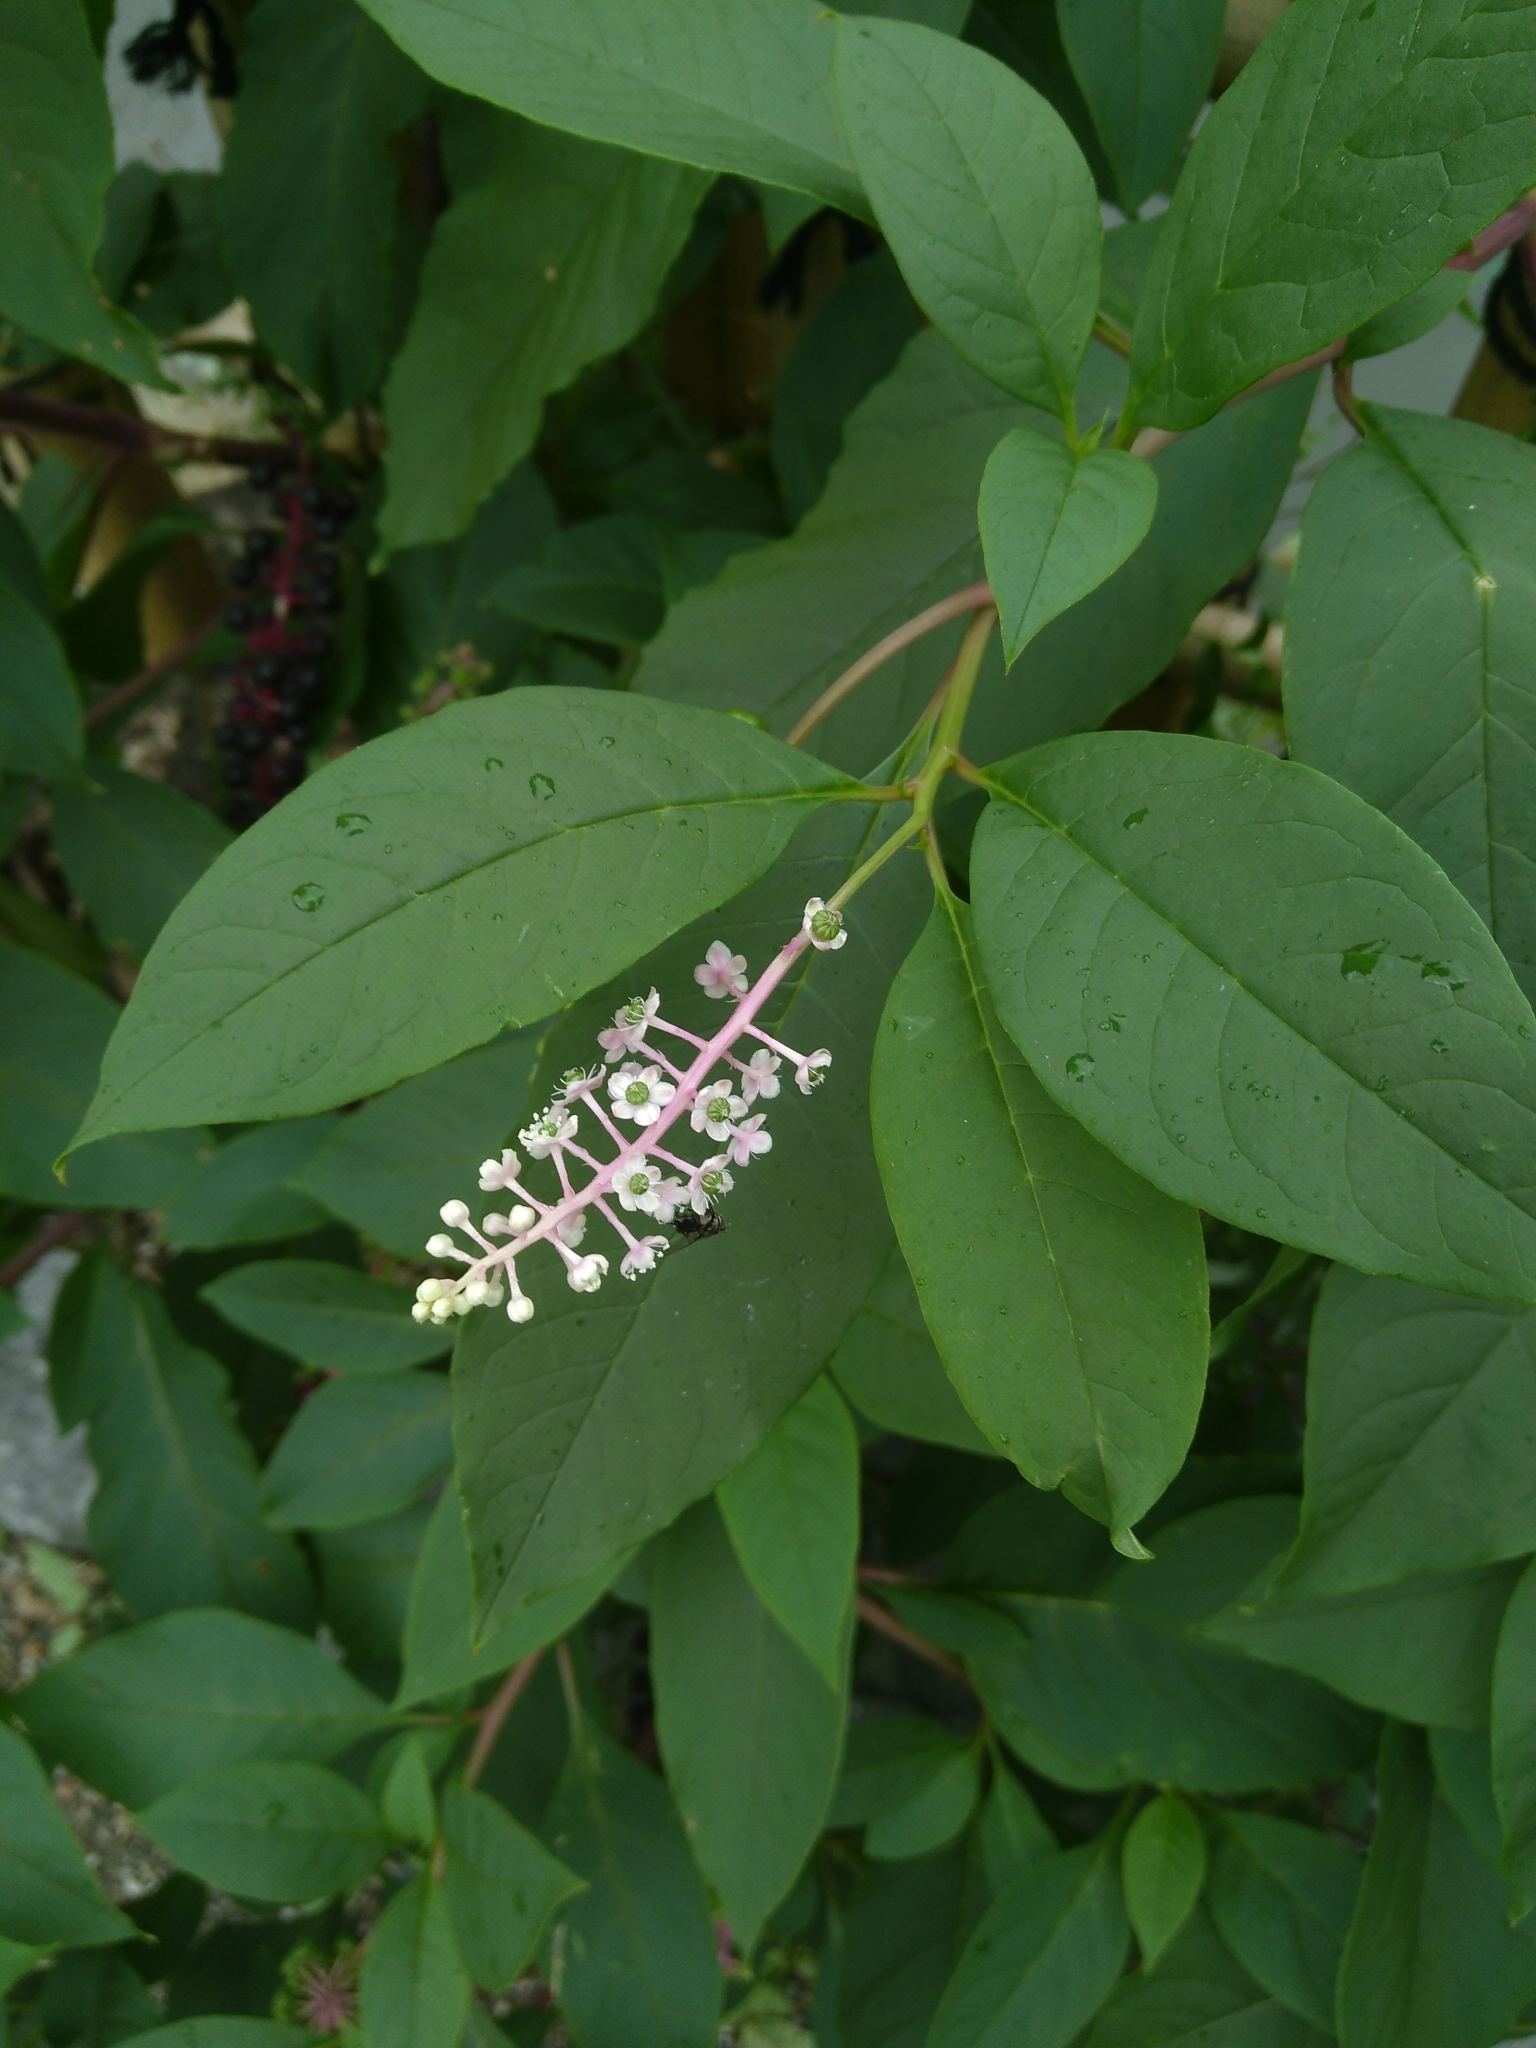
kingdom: Plantae
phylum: Tracheophyta
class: Magnoliopsida
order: Caryophyllales
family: Phytolaccaceae
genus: Phytolacca
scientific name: Phytolacca americana
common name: American pokeweed
